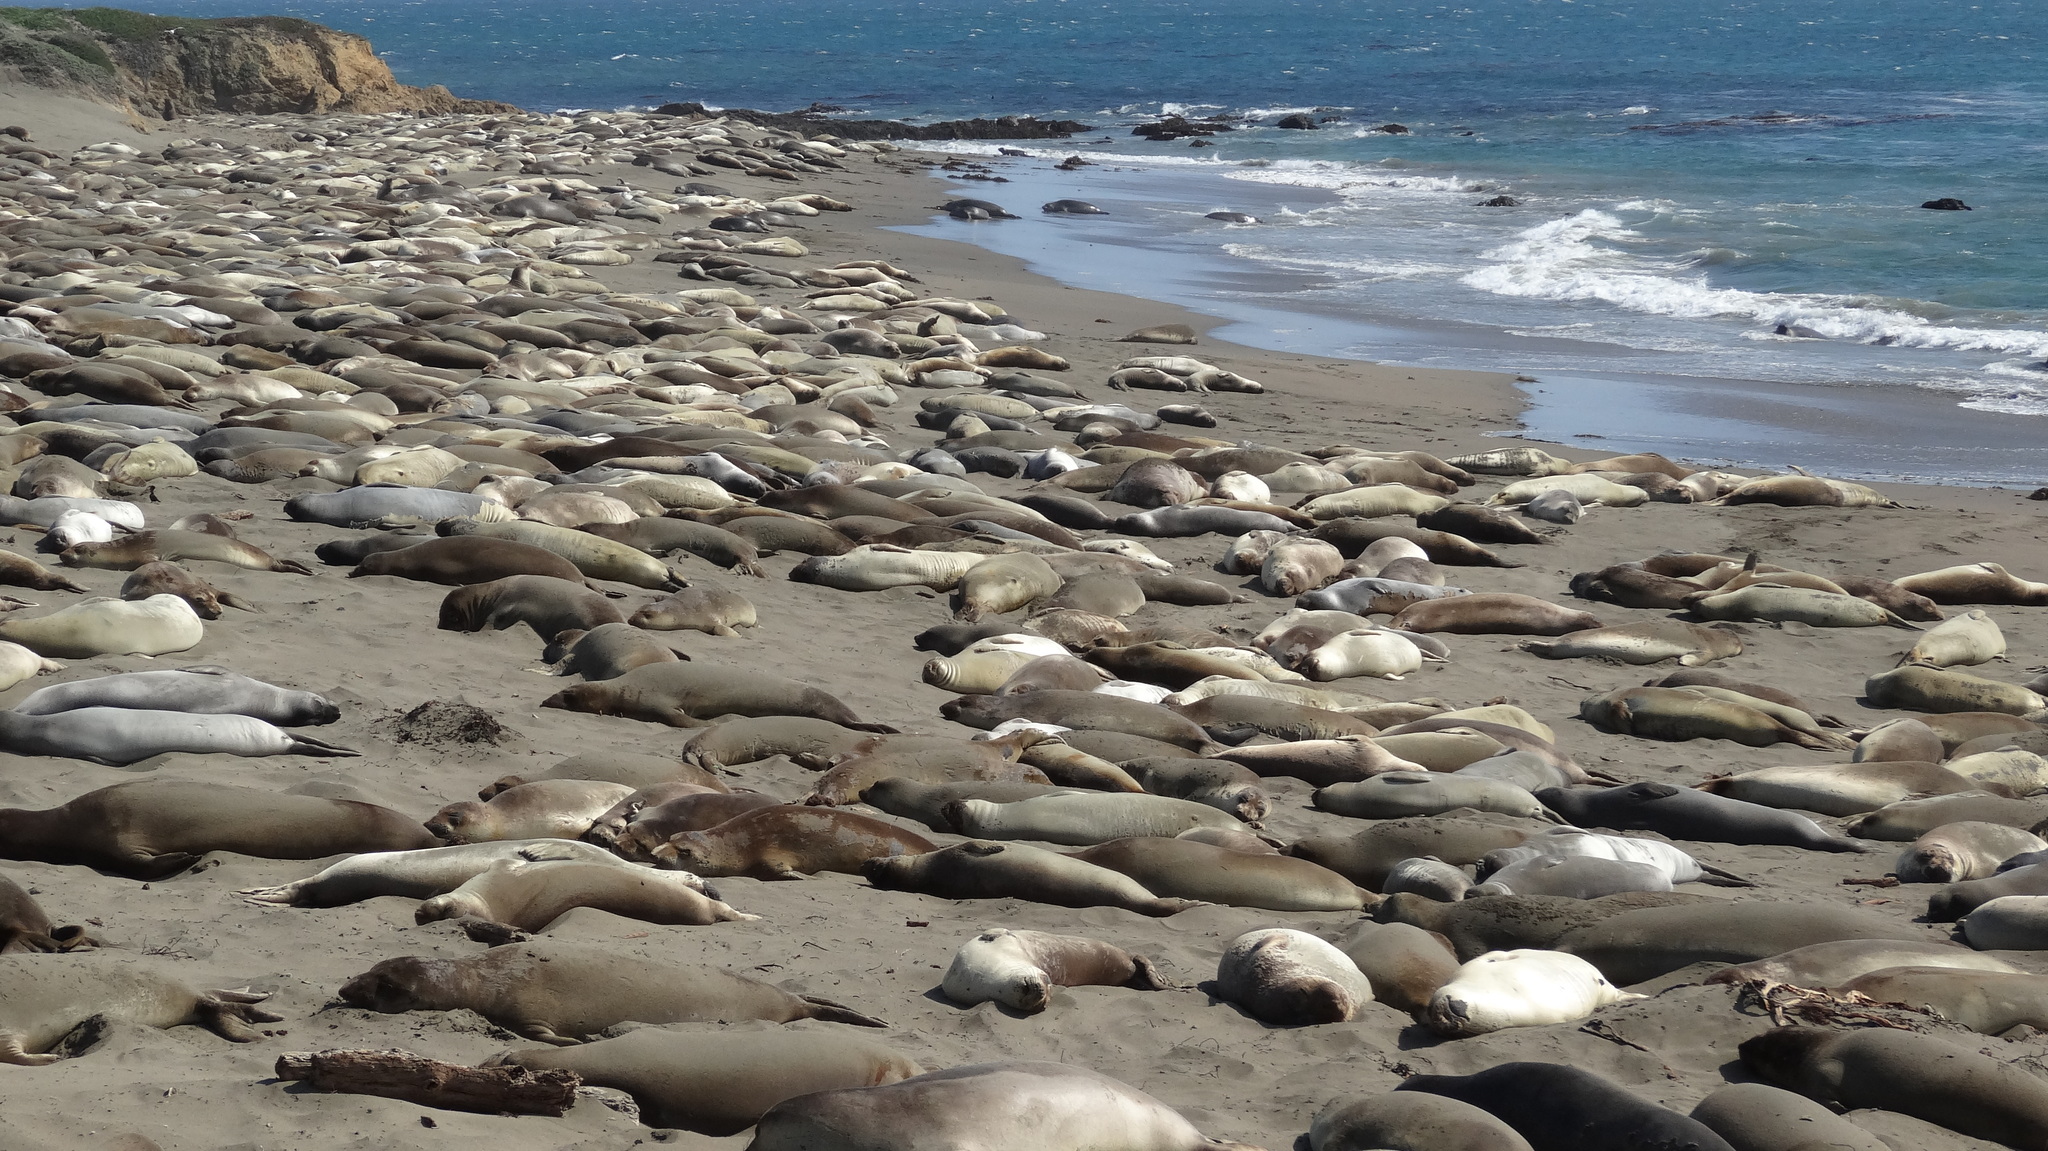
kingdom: Animalia
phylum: Chordata
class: Mammalia
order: Carnivora
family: Phocidae
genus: Mirounga
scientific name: Mirounga angustirostris
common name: Northern elephant seal
